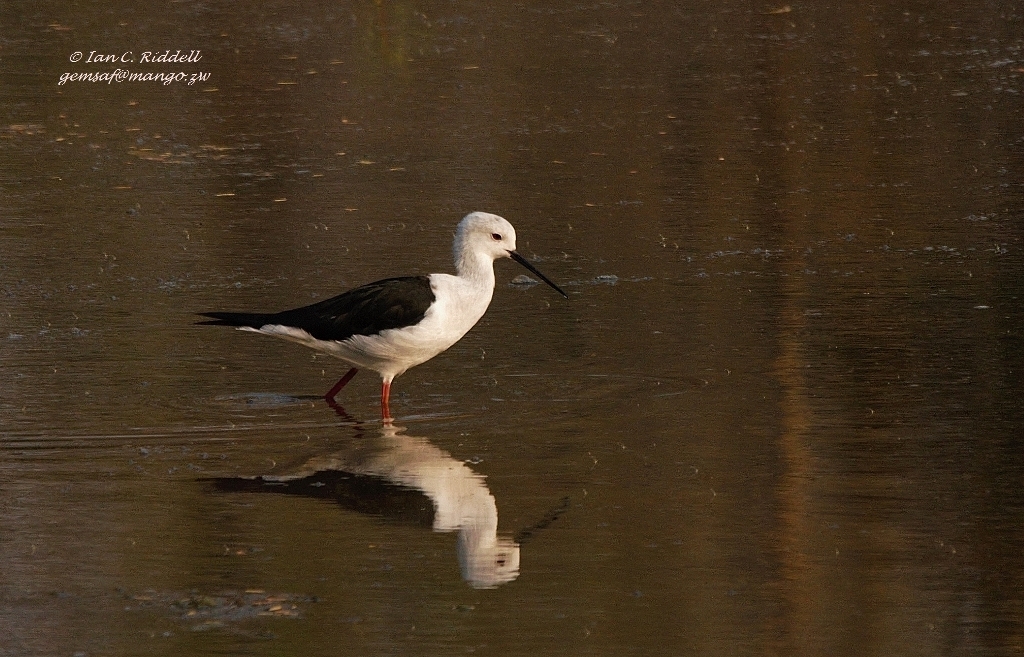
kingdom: Animalia
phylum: Chordata
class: Aves
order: Charadriiformes
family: Recurvirostridae
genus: Himantopus
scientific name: Himantopus himantopus
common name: Black-winged stilt
